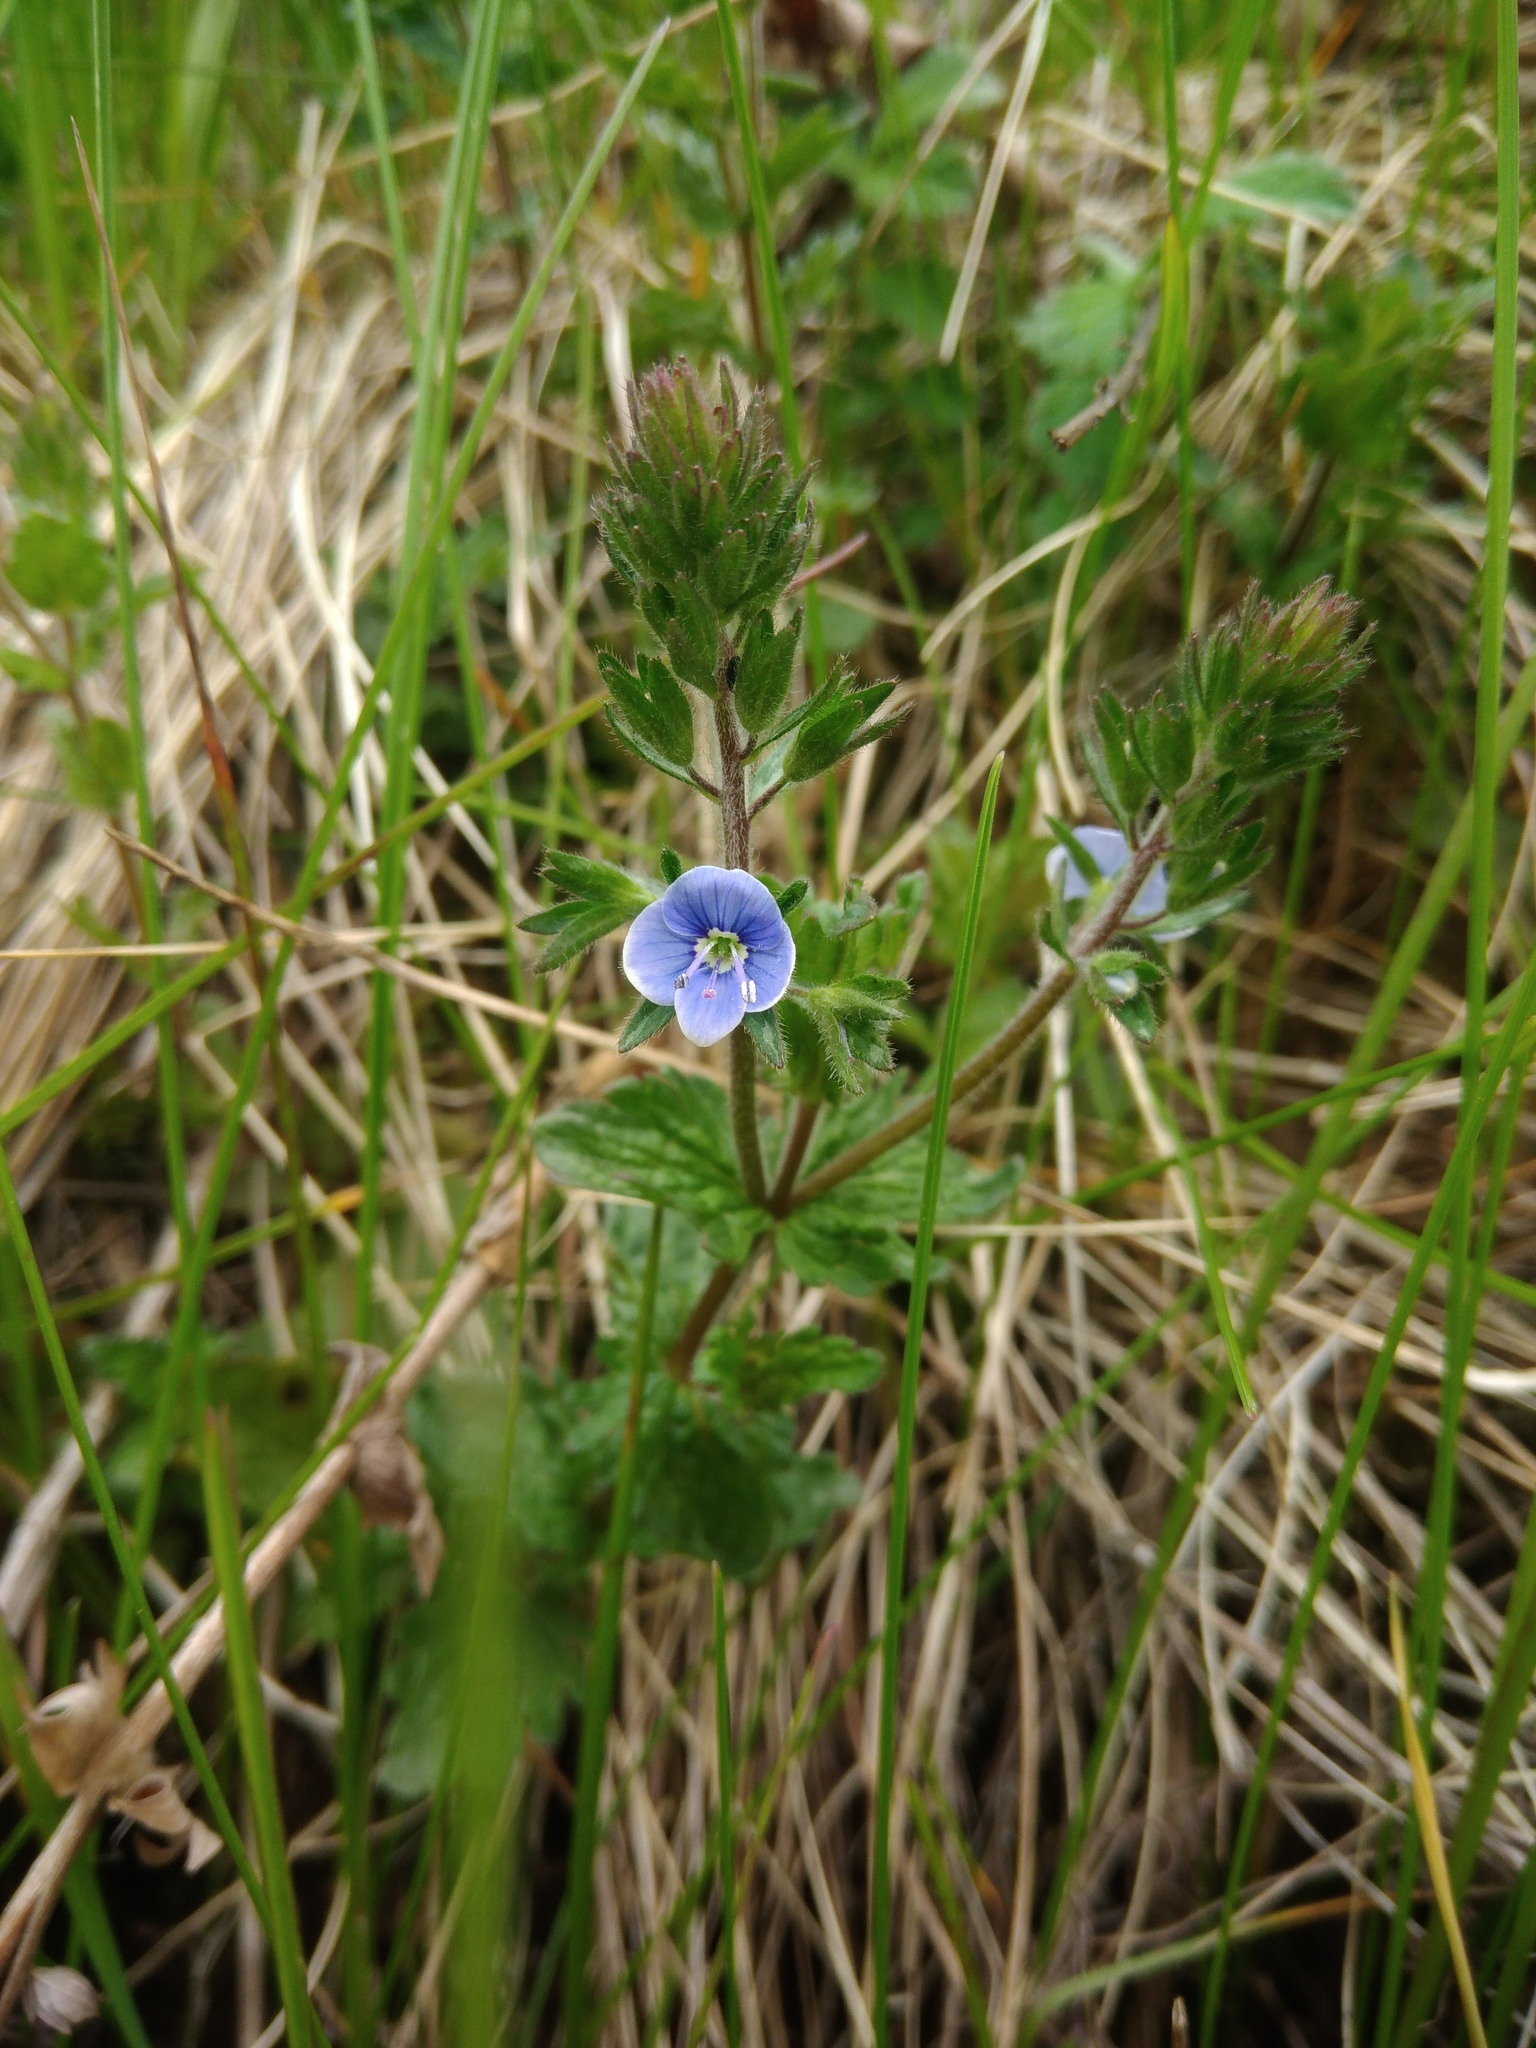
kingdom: Plantae
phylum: Tracheophyta
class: Magnoliopsida
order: Lamiales
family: Plantaginaceae
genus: Veronica
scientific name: Veronica chamaedrys
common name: Germander speedwell
